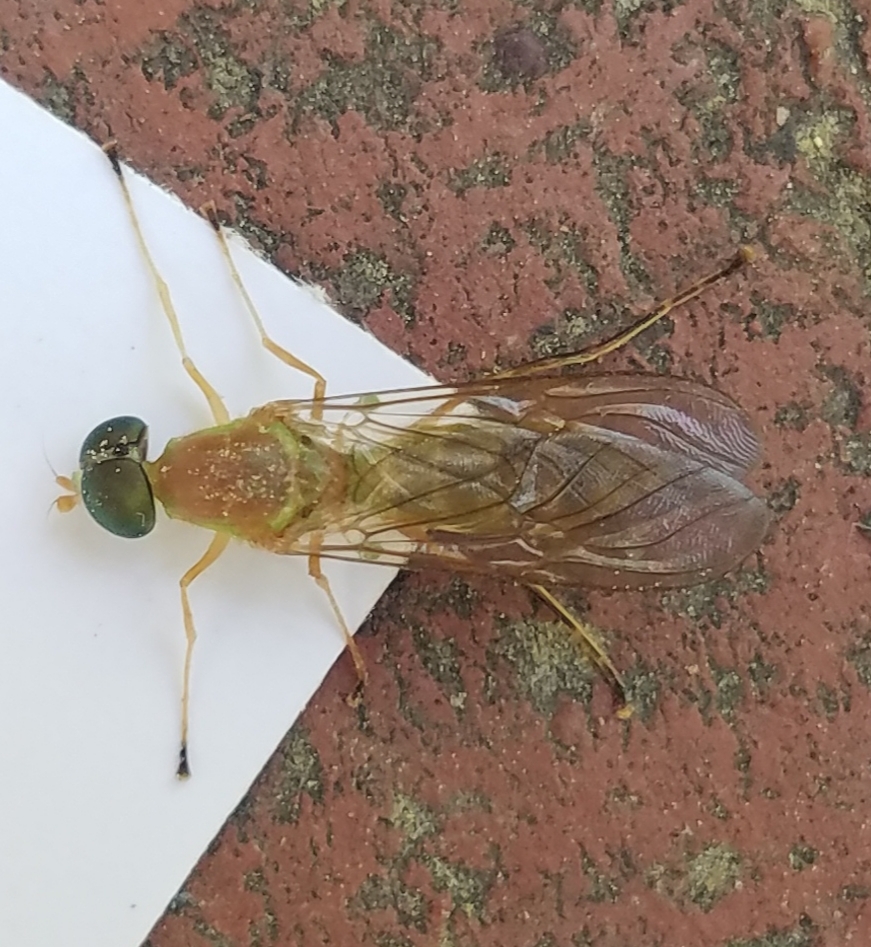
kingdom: Animalia
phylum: Arthropoda
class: Insecta
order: Diptera
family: Stratiomyidae
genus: Ptecticus
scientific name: Ptecticus trivittatus
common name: Compost fly
